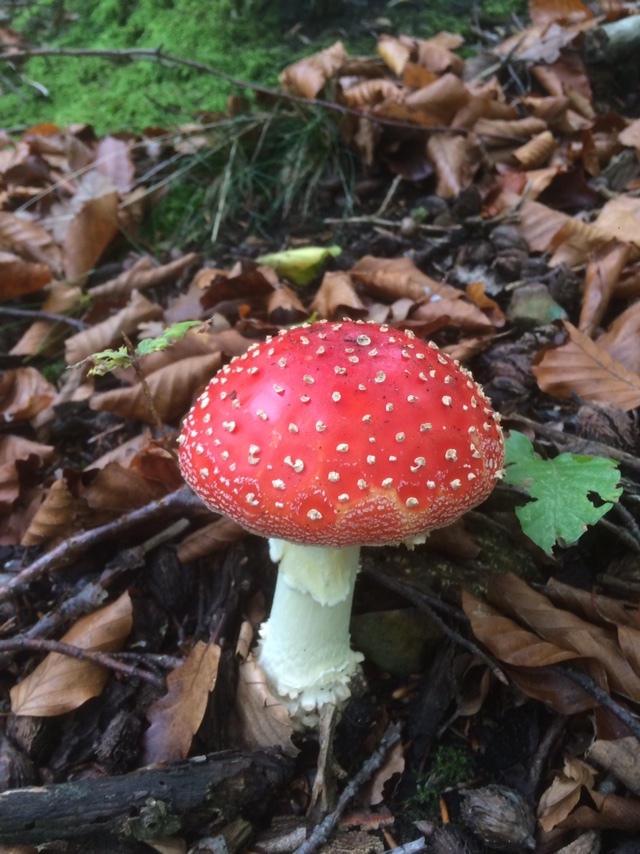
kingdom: Fungi
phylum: Basidiomycota
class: Agaricomycetes
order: Agaricales
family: Amanitaceae
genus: Amanita
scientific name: Amanita muscaria
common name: Fly agaric
